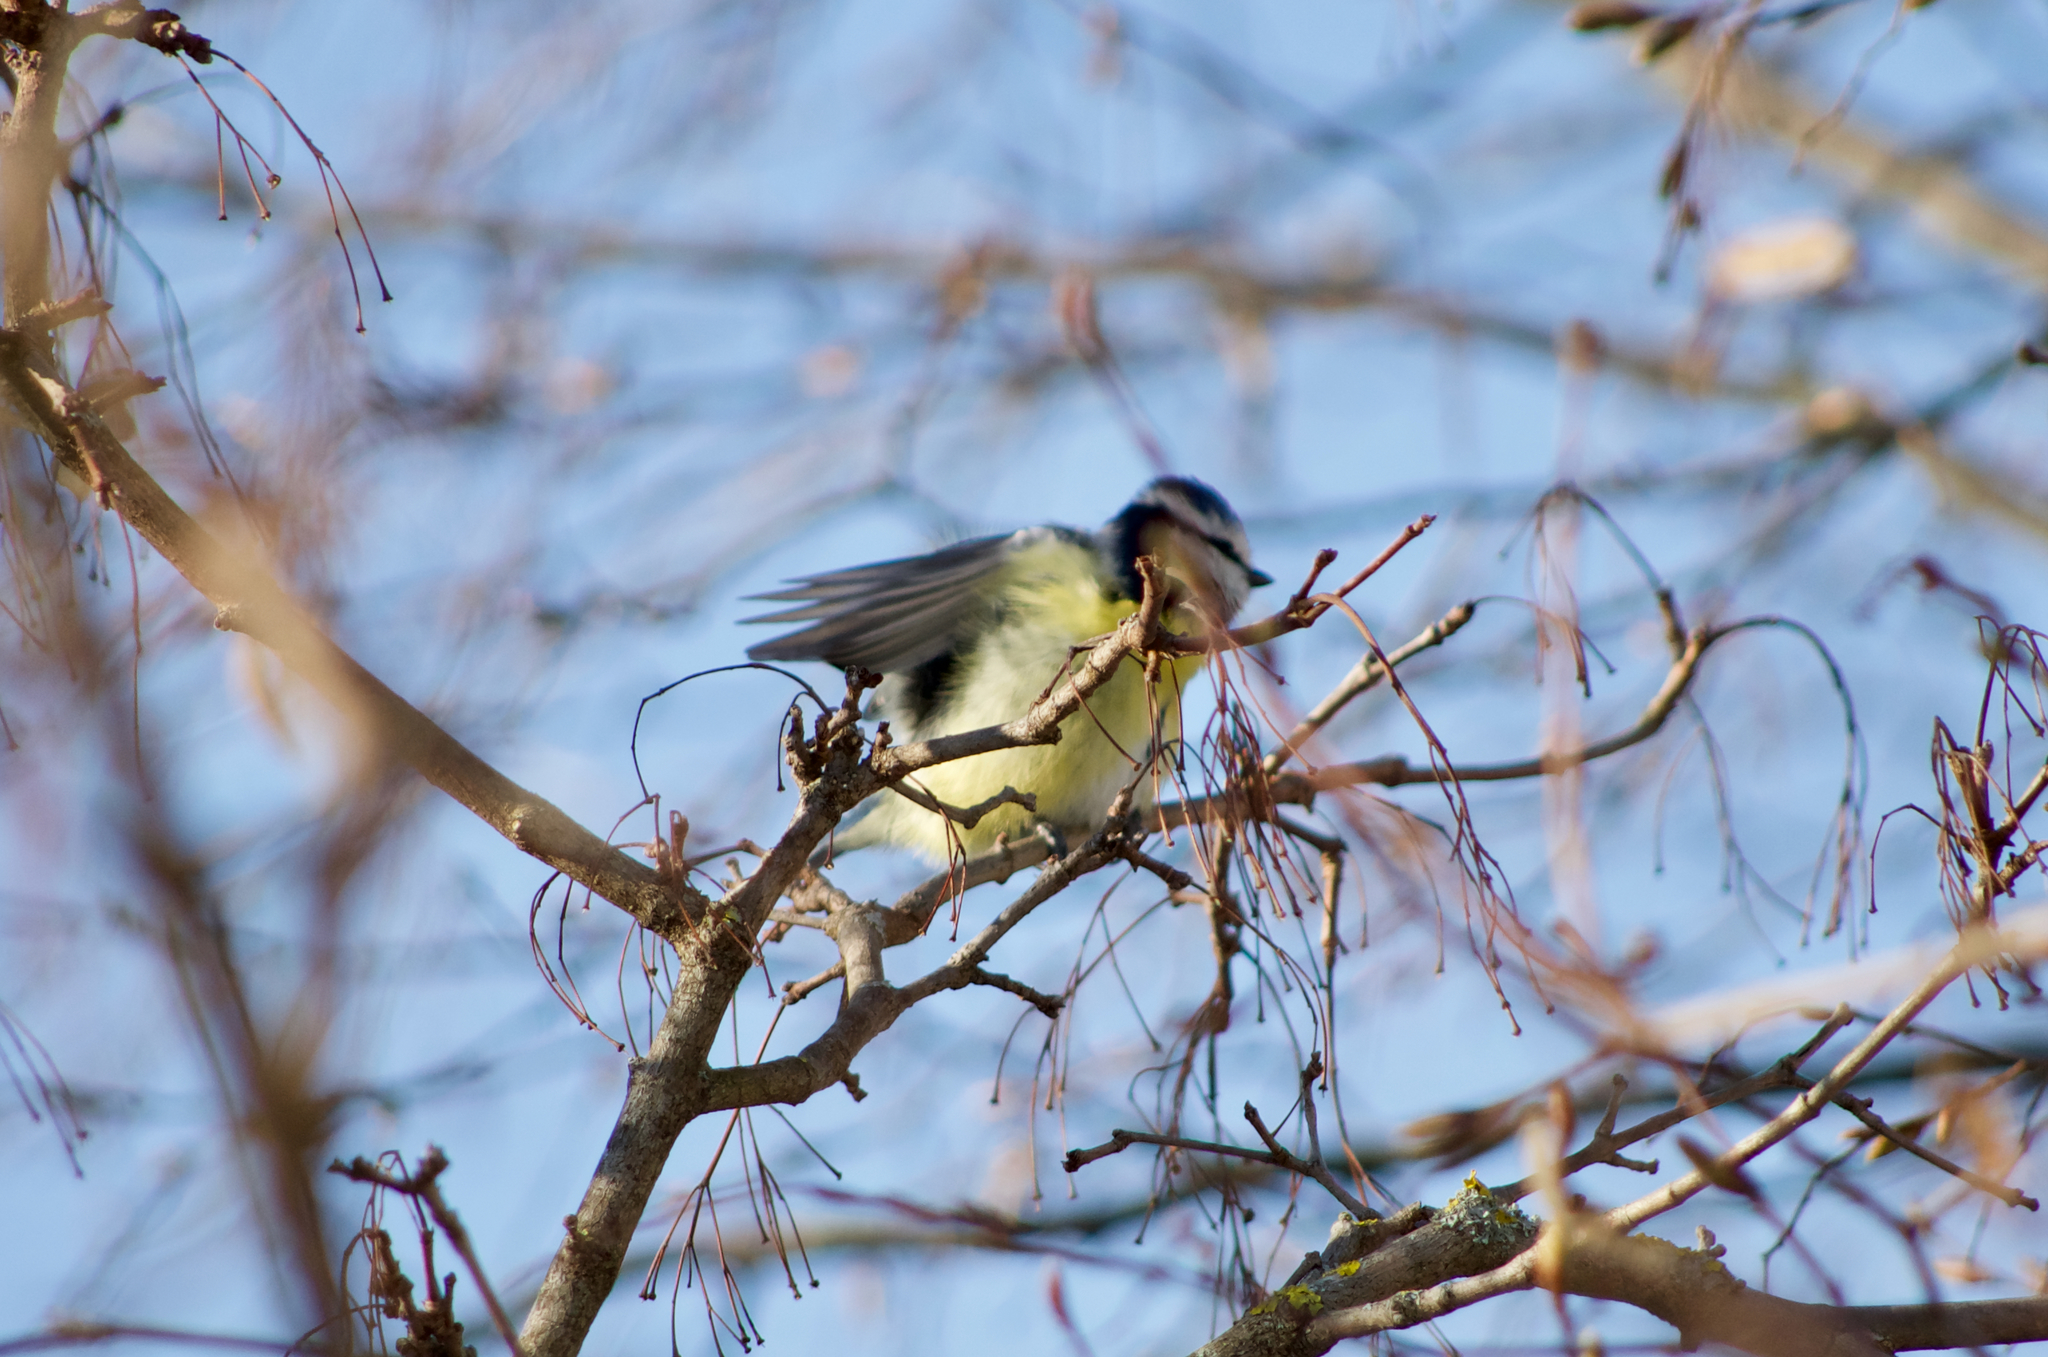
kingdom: Animalia
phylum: Chordata
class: Aves
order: Passeriformes
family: Paridae
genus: Cyanistes
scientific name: Cyanistes caeruleus
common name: Eurasian blue tit
